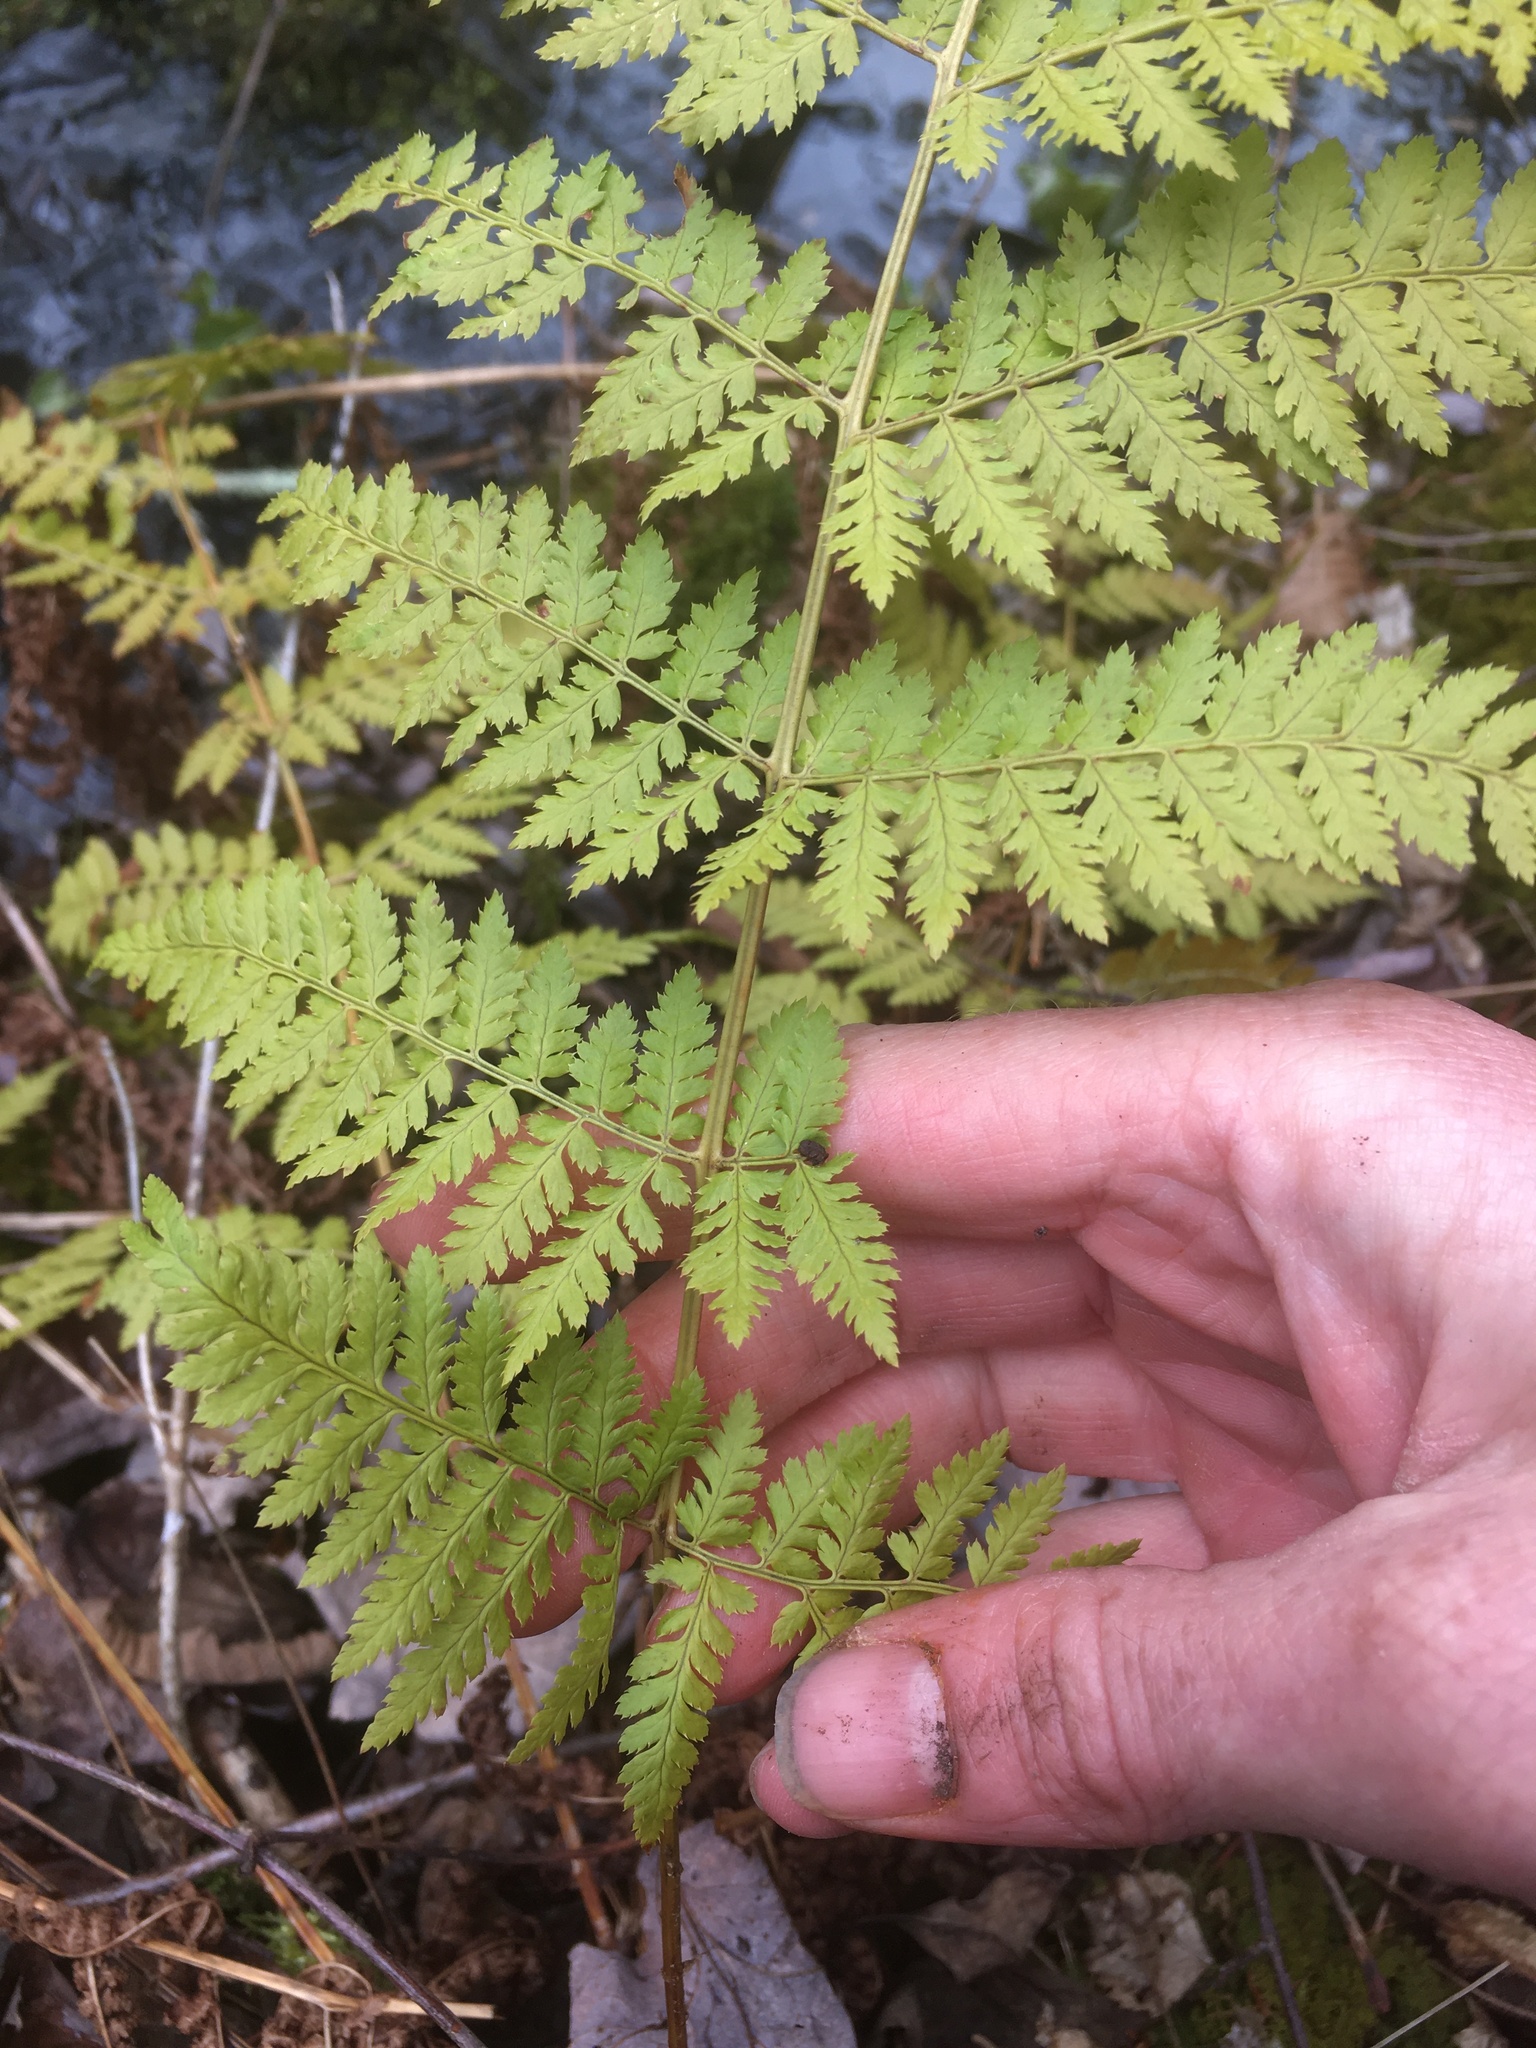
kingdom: Plantae
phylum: Tracheophyta
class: Polypodiopsida
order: Polypodiales
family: Dryopteridaceae
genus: Dryopteris
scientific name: Dryopteris intermedia
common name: Evergreen wood fern
